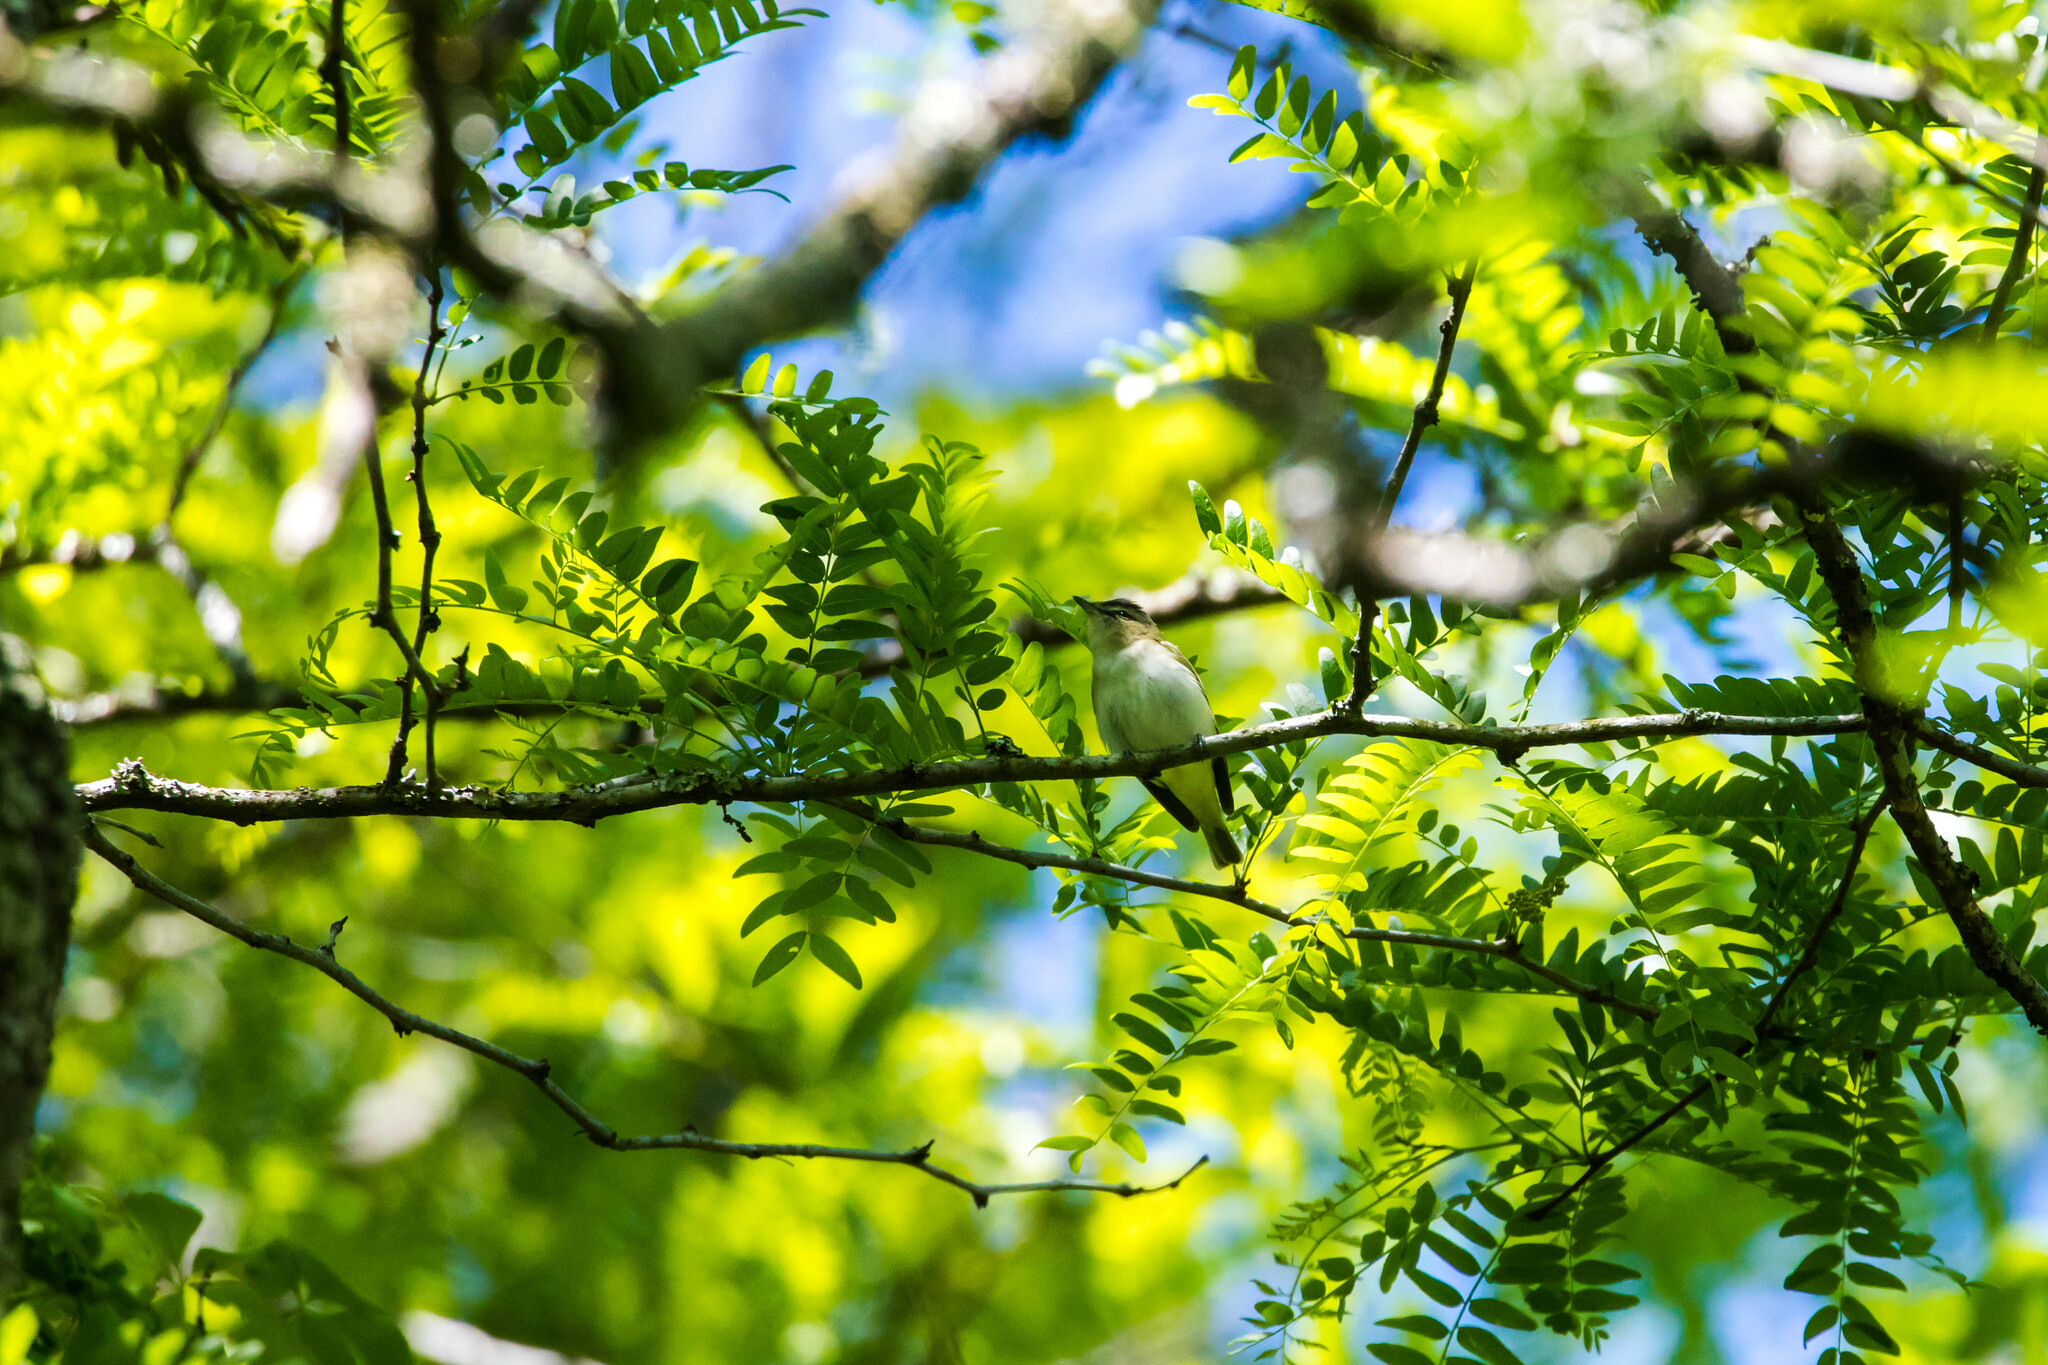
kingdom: Animalia
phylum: Chordata
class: Aves
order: Passeriformes
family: Vireonidae
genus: Vireo
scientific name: Vireo olivaceus
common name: Red-eyed vireo
